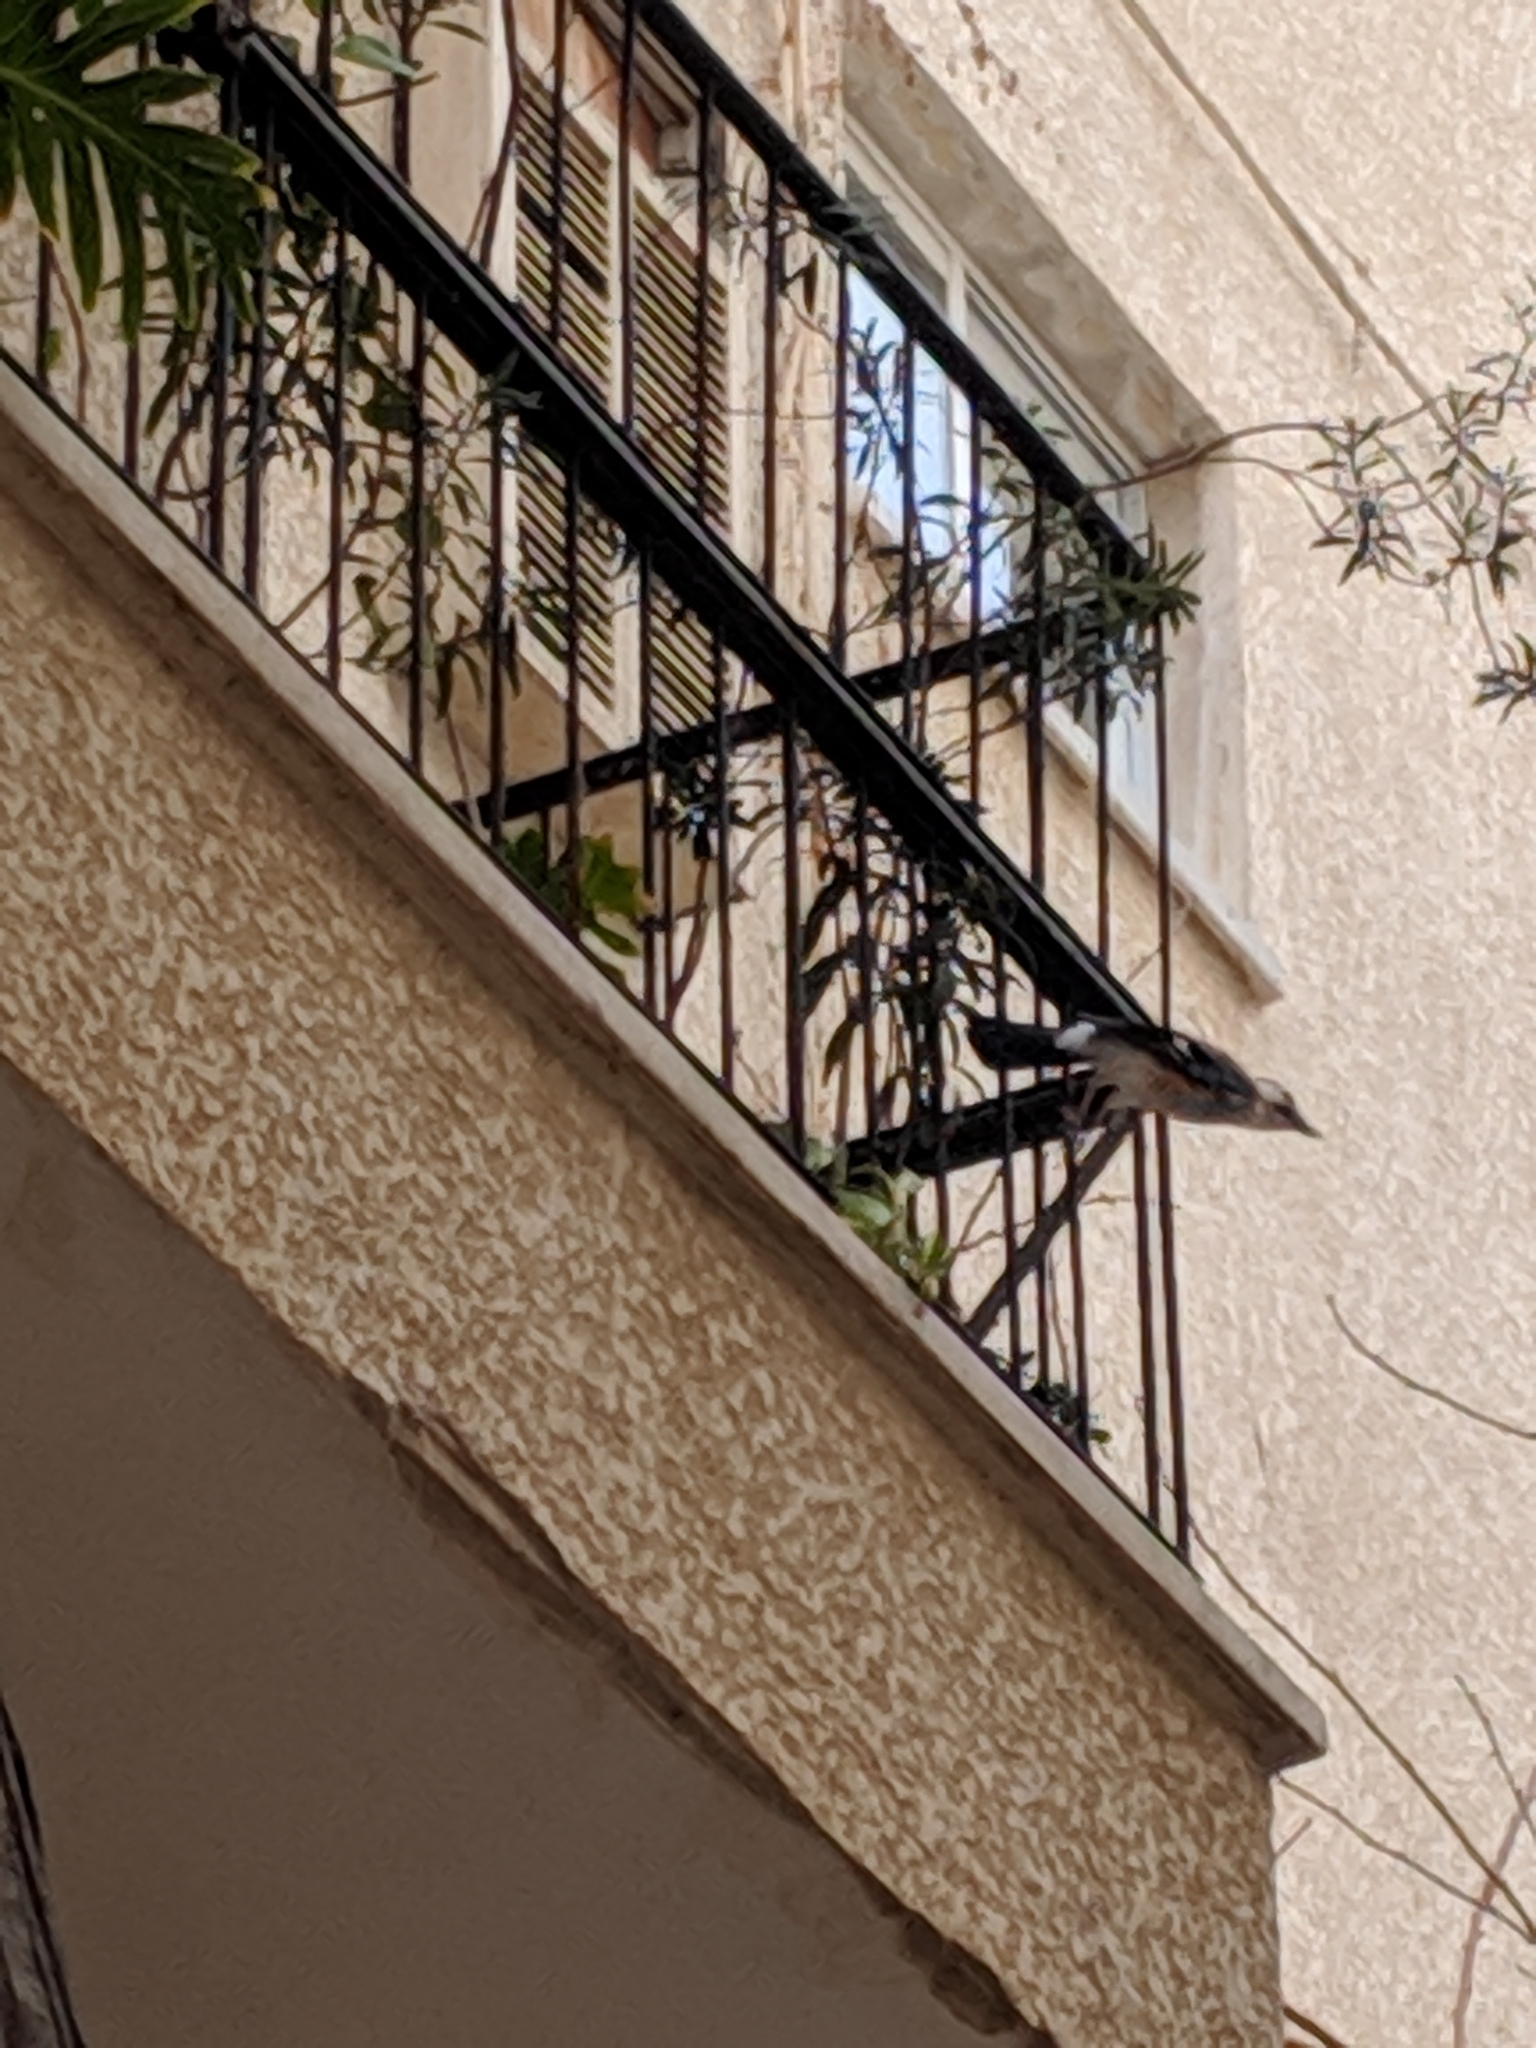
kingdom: Animalia
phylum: Chordata
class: Aves
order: Passeriformes
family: Corvidae
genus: Garrulus
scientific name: Garrulus glandarius
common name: Eurasian jay
